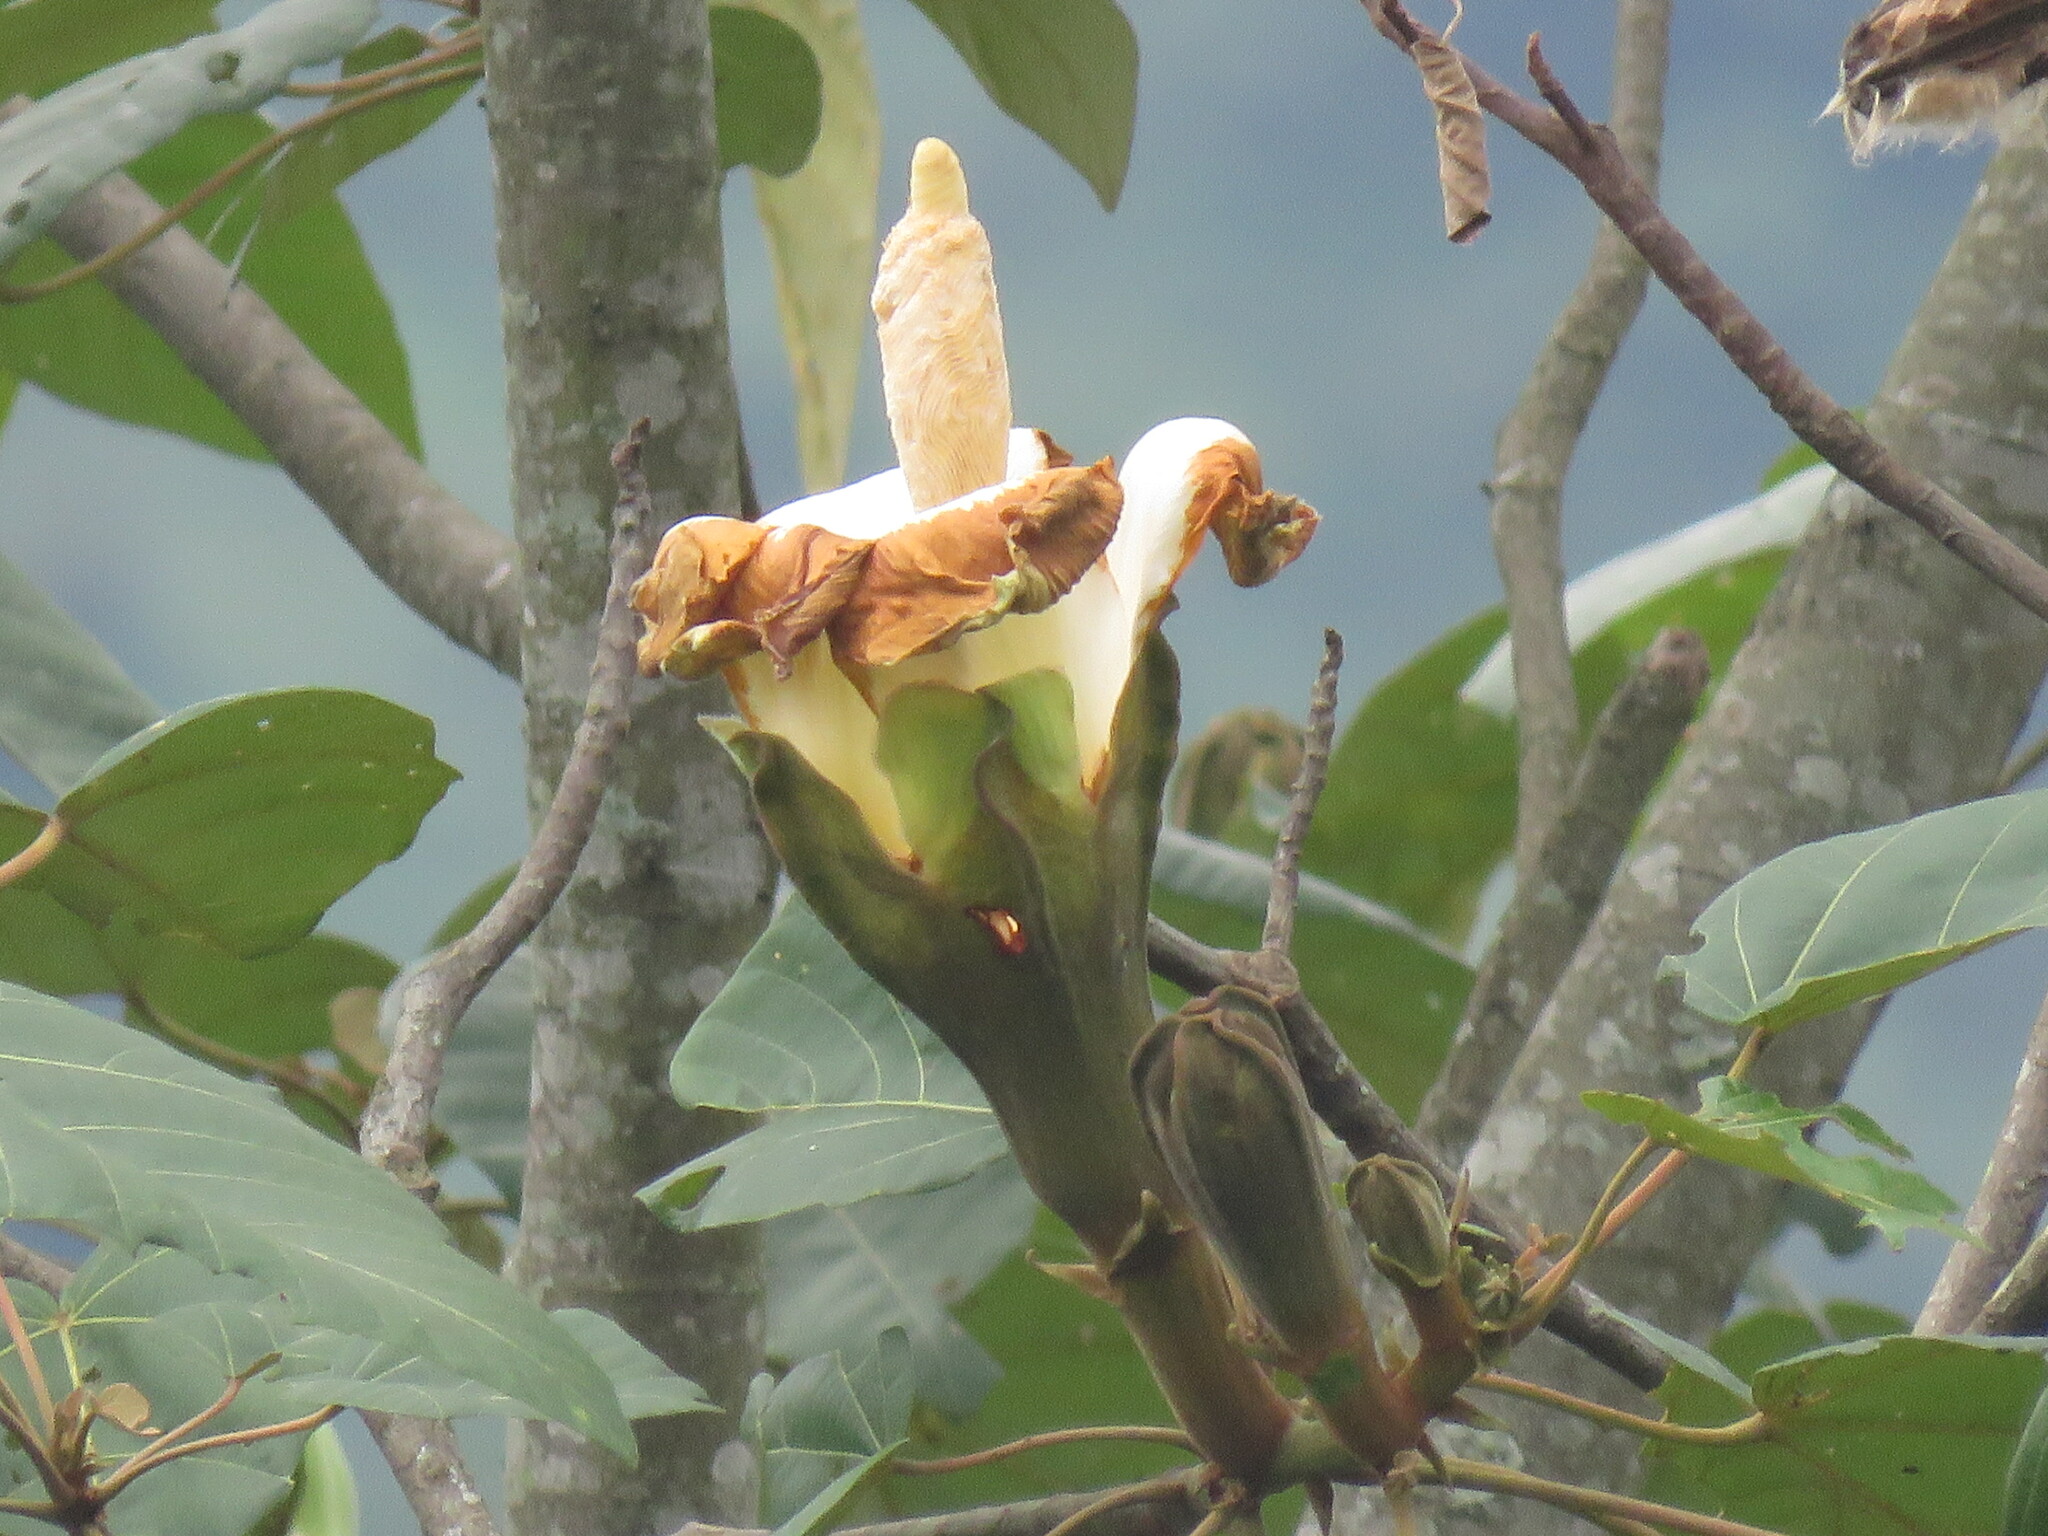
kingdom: Plantae
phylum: Tracheophyta
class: Magnoliopsida
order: Malvales
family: Malvaceae
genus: Ochroma
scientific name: Ochroma pyramidale
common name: Balsa
